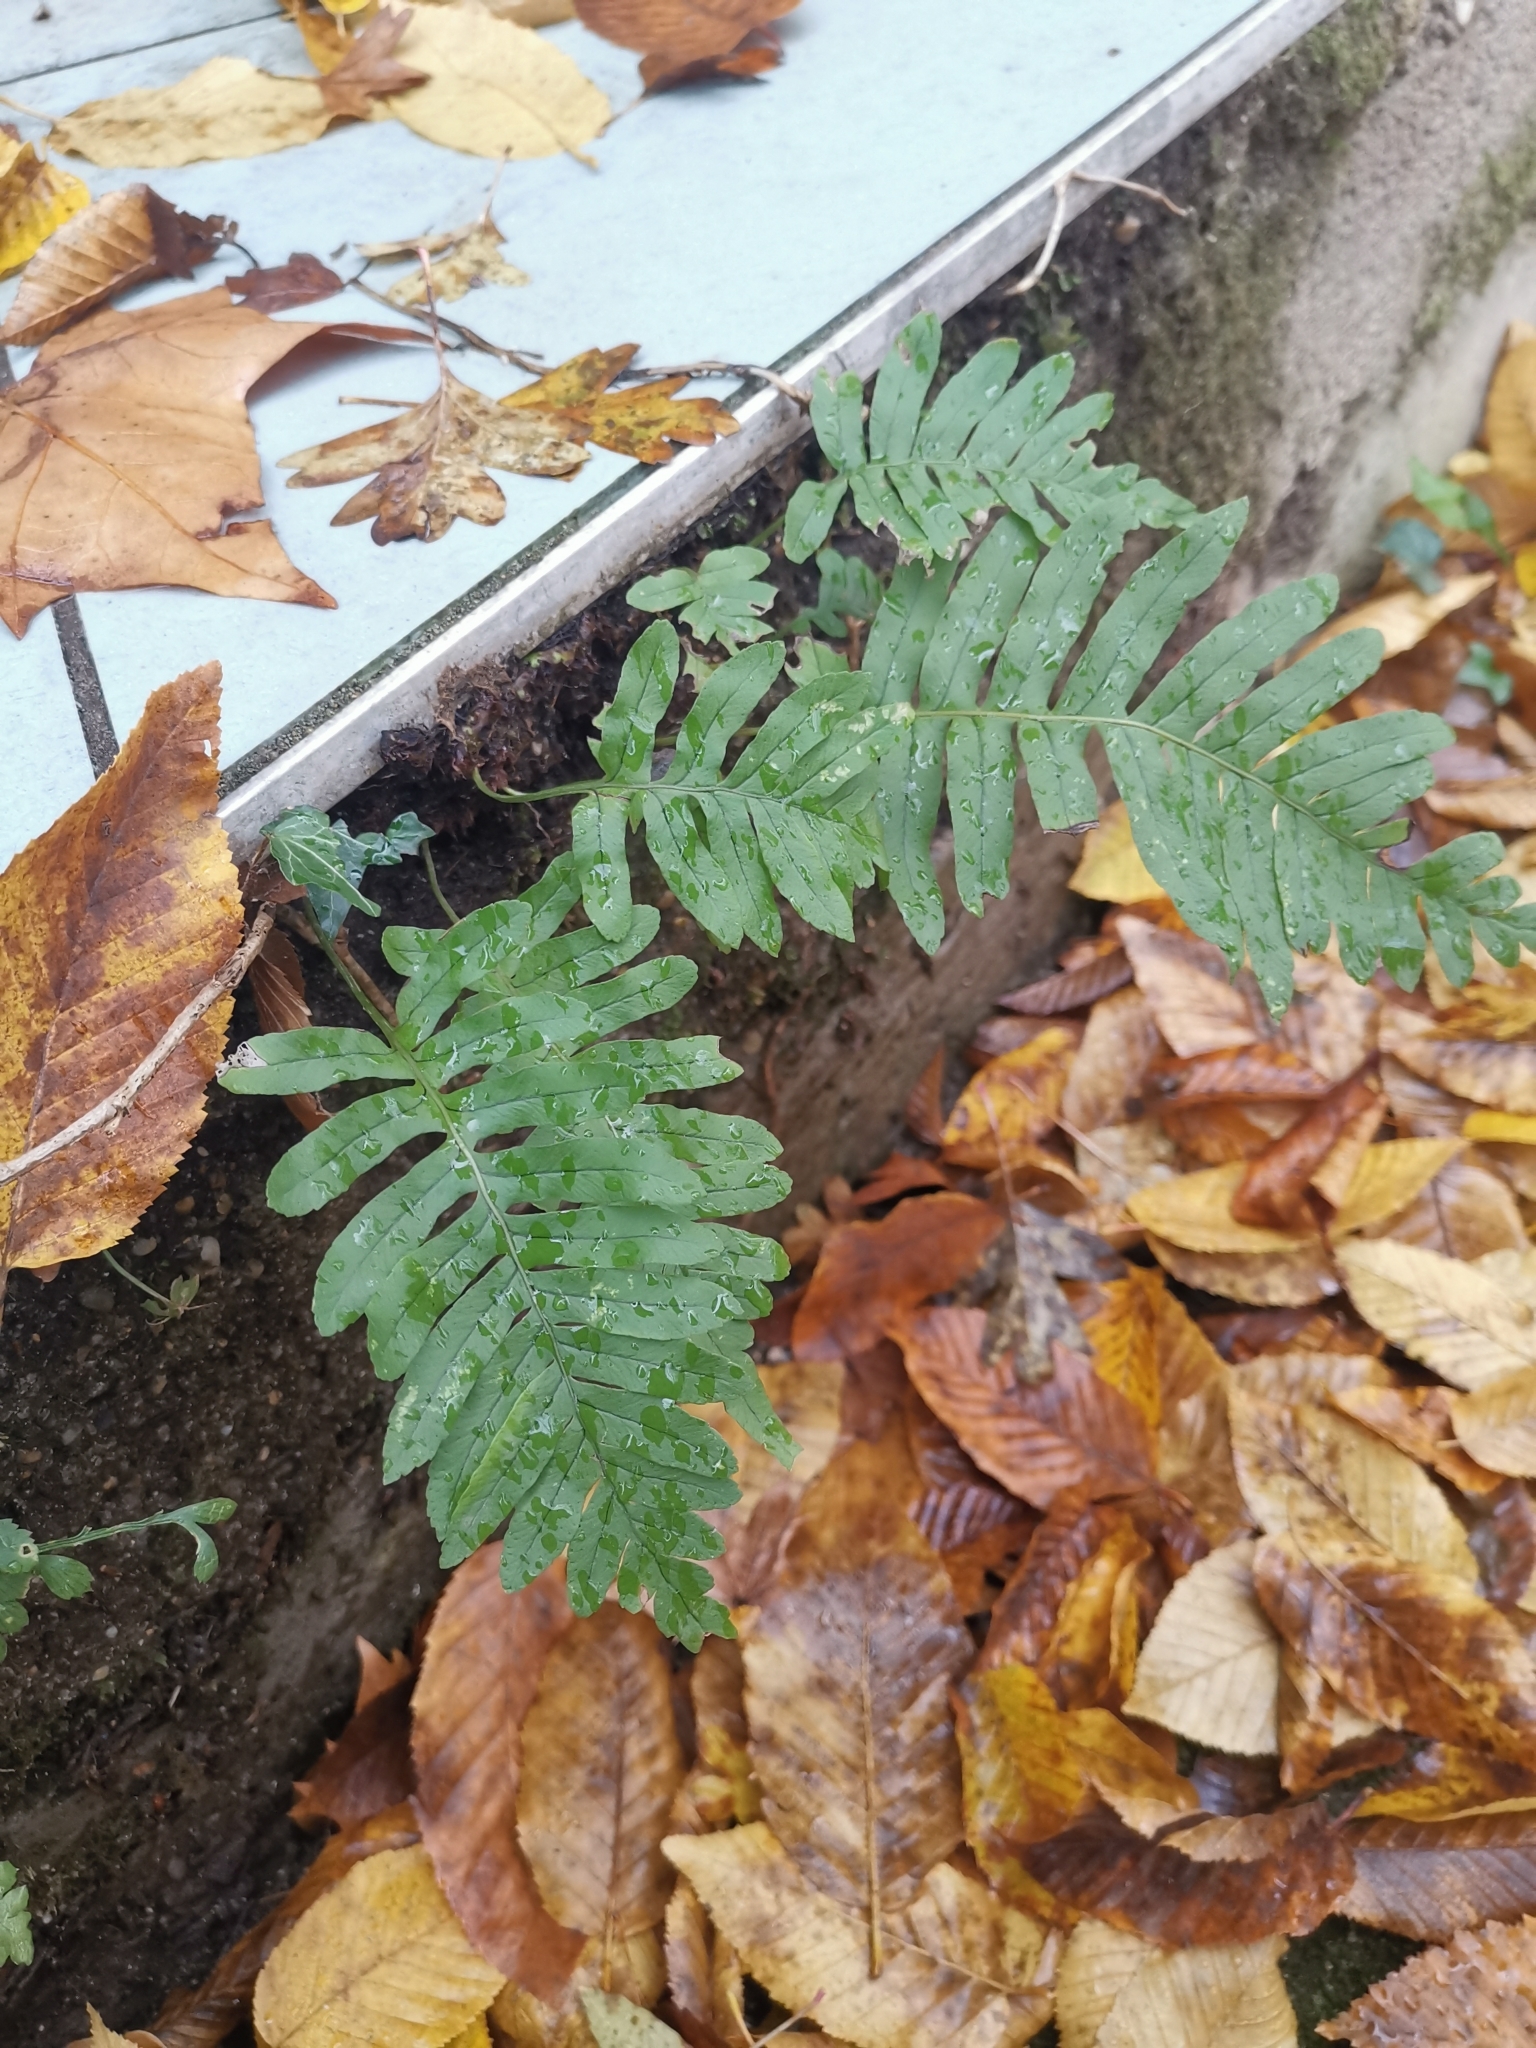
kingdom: Plantae
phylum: Tracheophyta
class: Polypodiopsida
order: Polypodiales
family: Polypodiaceae
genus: Polypodium
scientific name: Polypodium vulgare
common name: Common polypody
